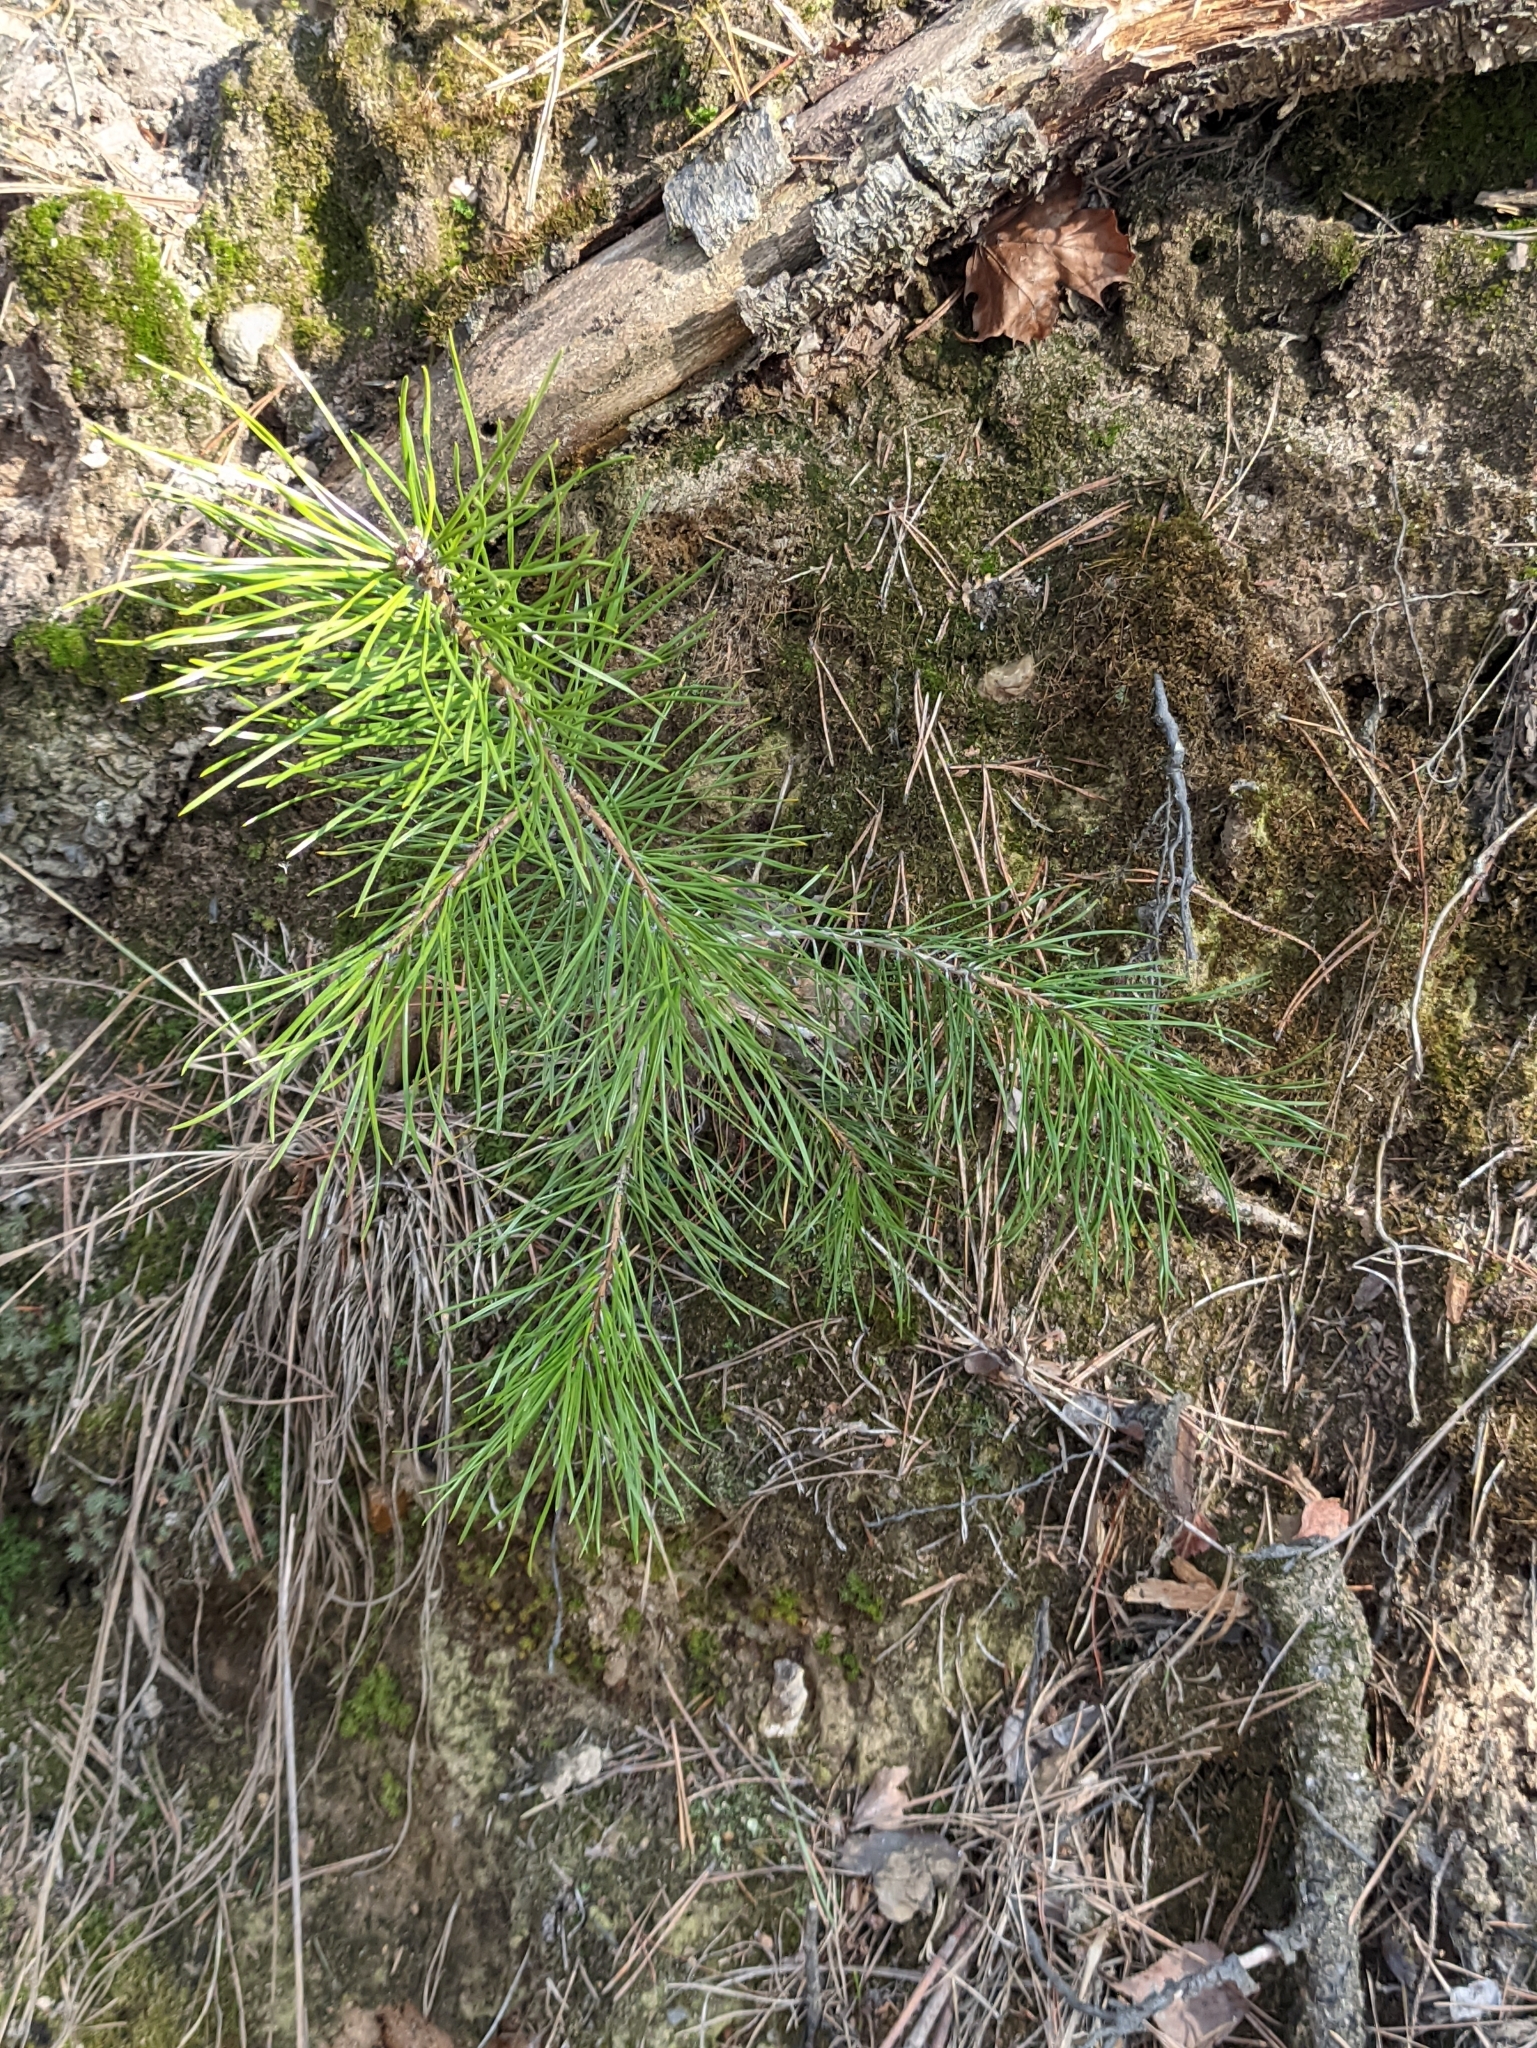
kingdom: Plantae
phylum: Tracheophyta
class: Pinopsida
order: Pinales
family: Pinaceae
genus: Pinus
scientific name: Pinus sylvestris
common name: Scots pine
